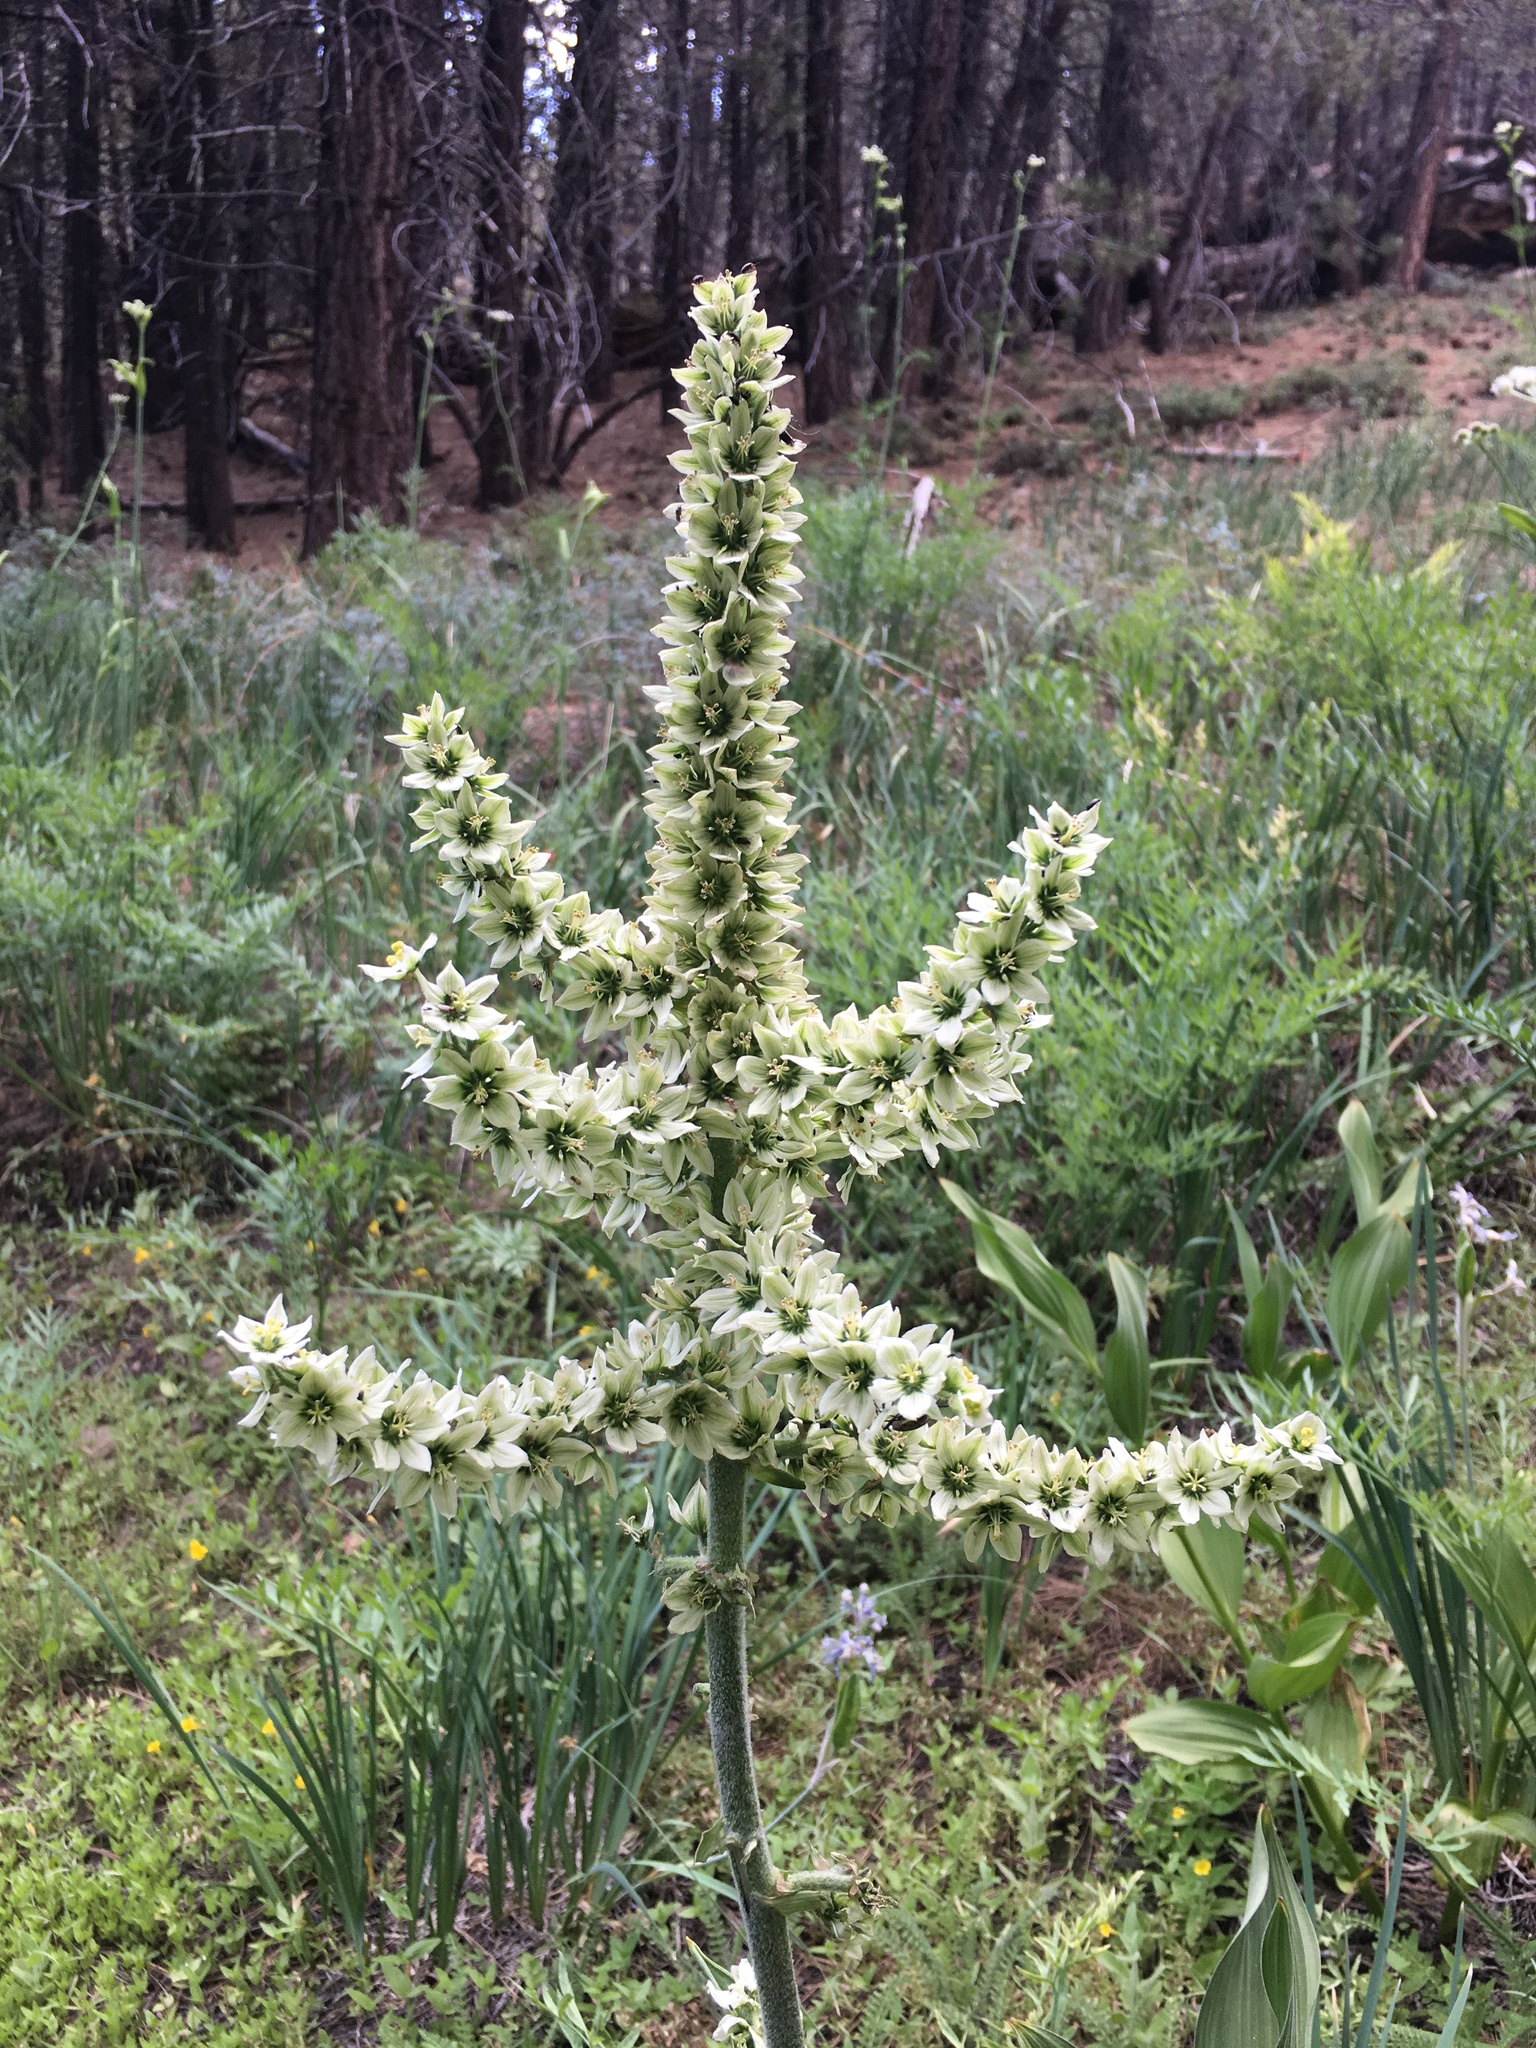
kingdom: Plantae
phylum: Tracheophyta
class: Liliopsida
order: Liliales
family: Melanthiaceae
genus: Veratrum
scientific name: Veratrum californicum
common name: California veratrum
